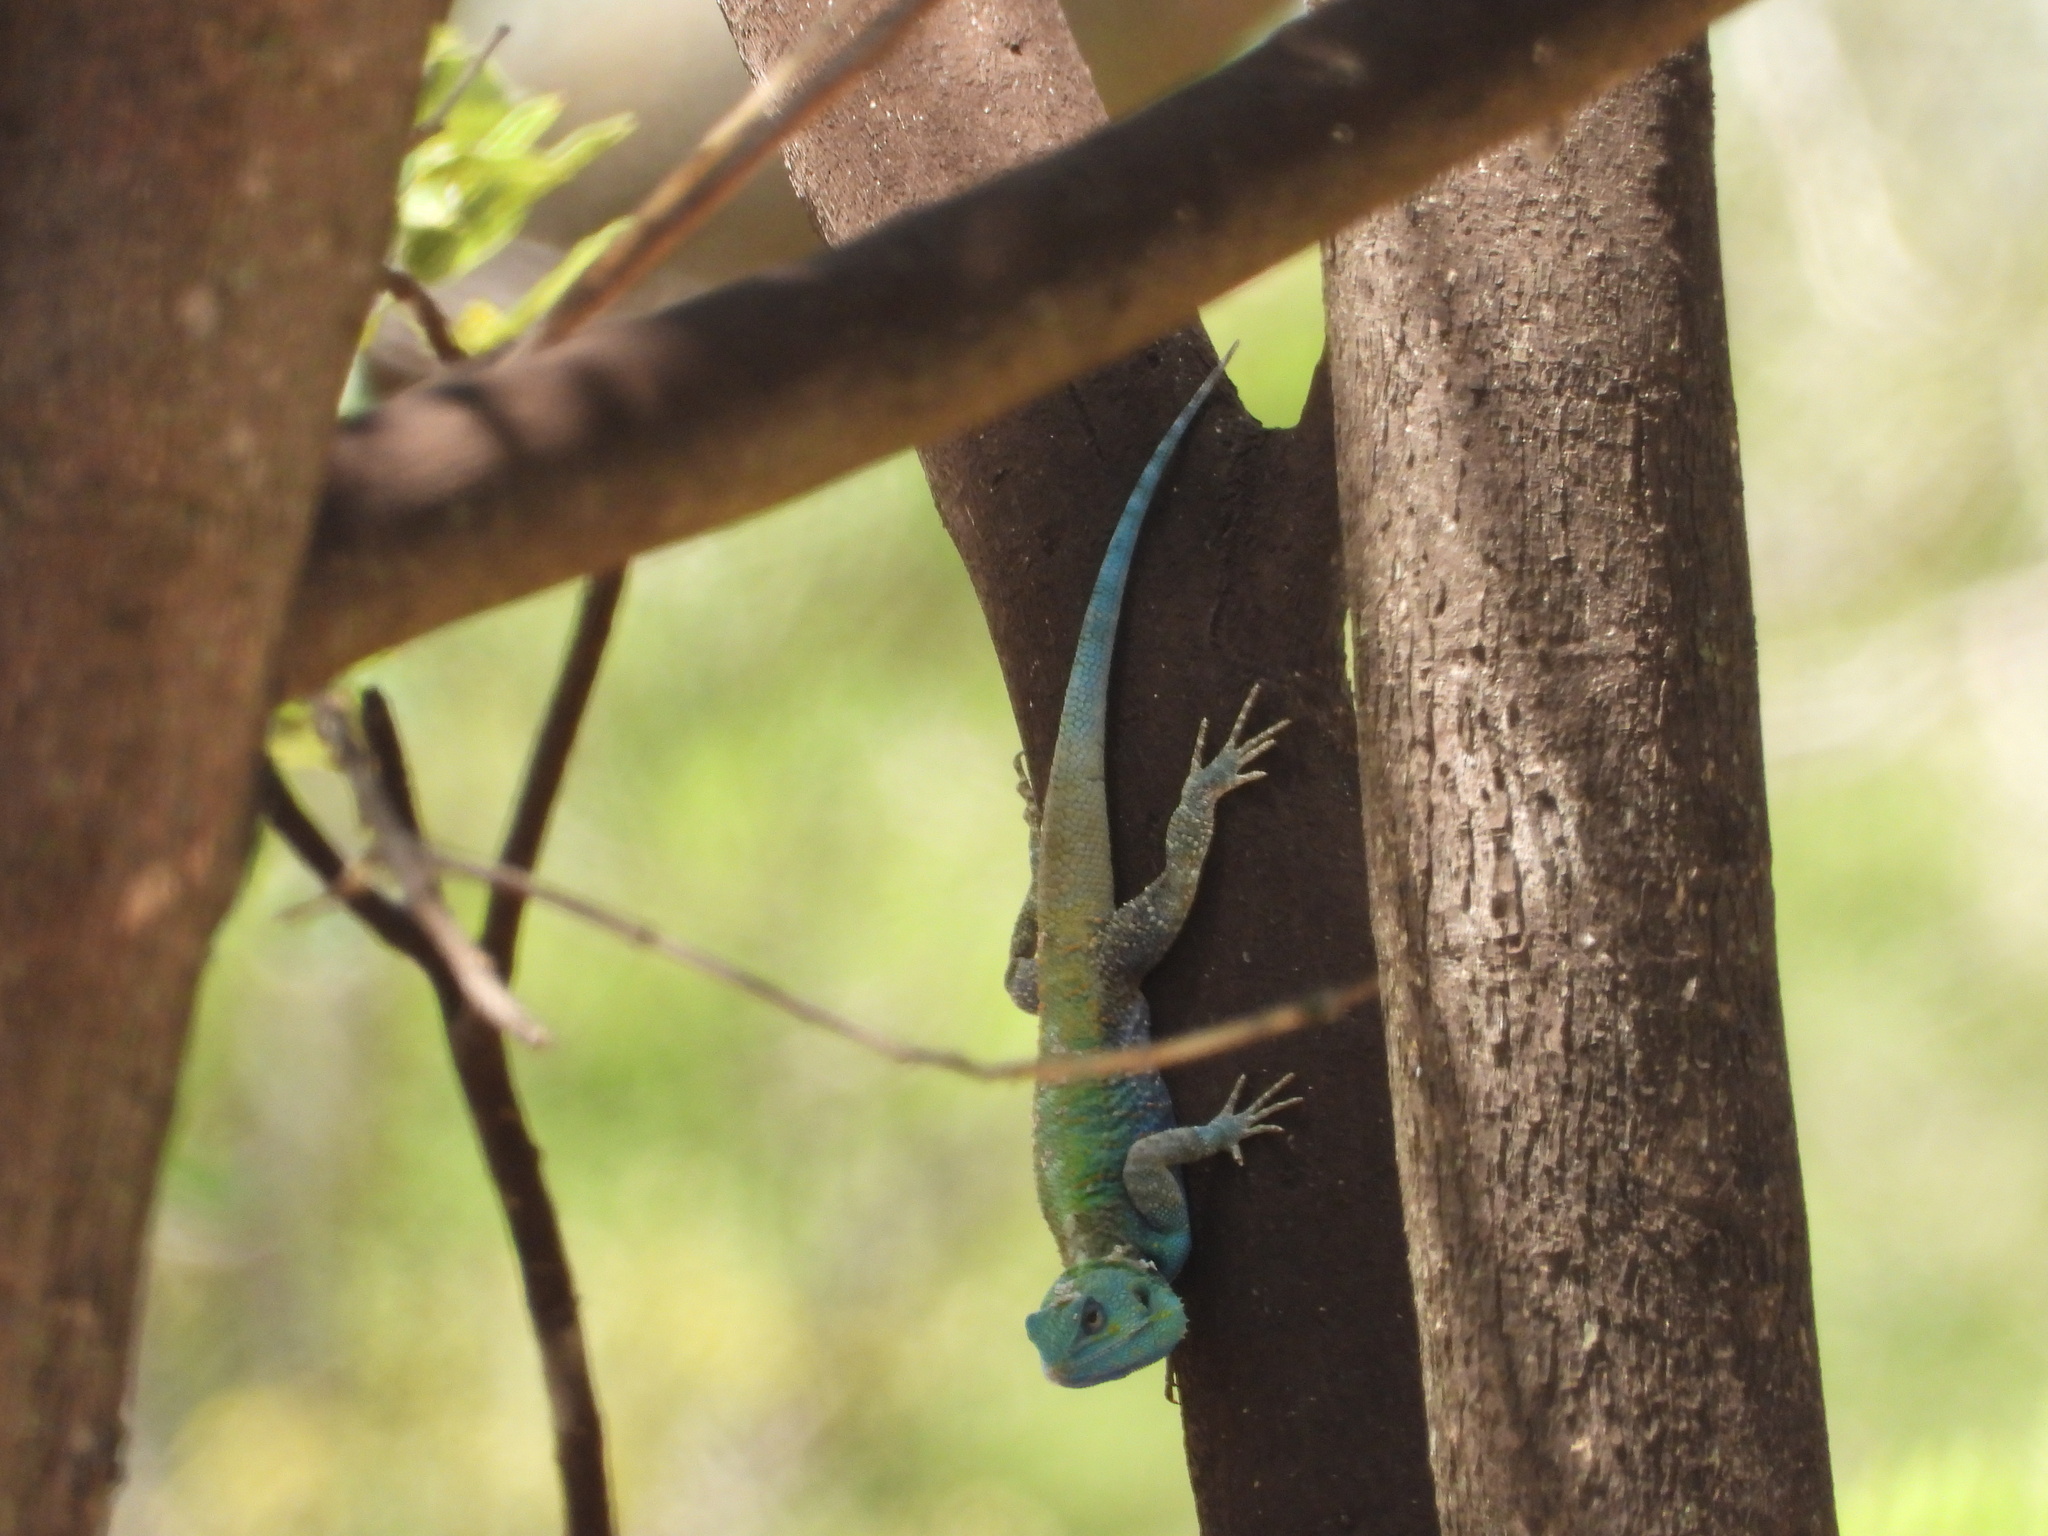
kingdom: Animalia
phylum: Chordata
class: Squamata
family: Agamidae
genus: Acanthocercus
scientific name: Acanthocercus gregorii
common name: Black-necked (ridgeback) agama
